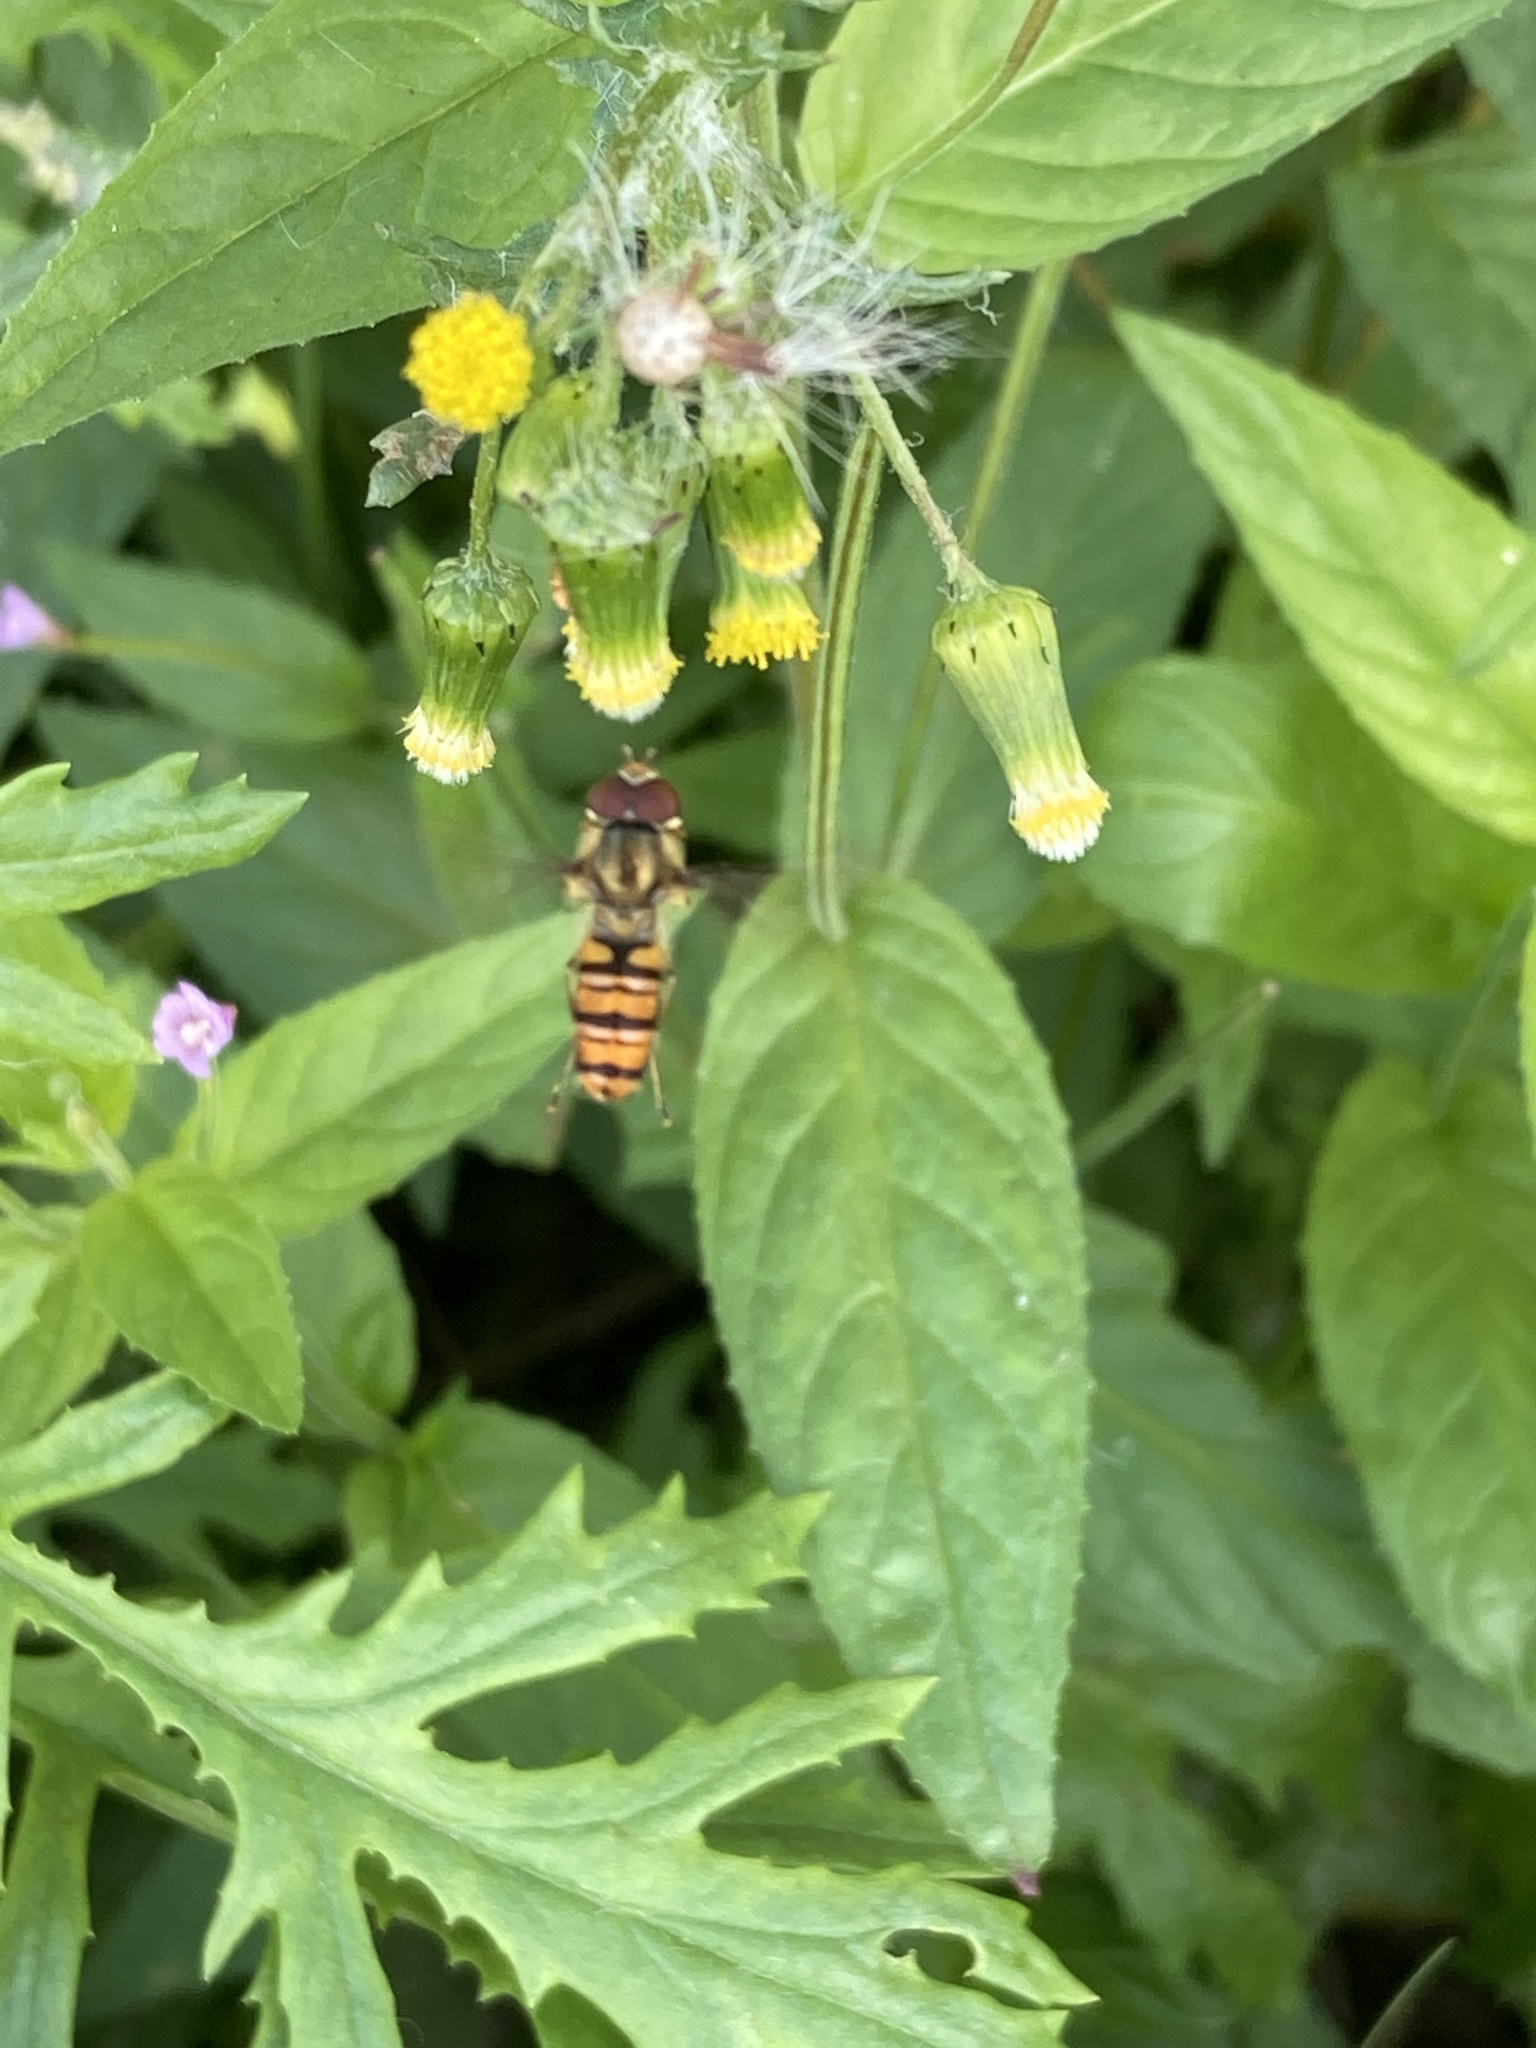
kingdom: Animalia
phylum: Arthropoda
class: Insecta
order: Diptera
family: Syrphidae
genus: Episyrphus
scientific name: Episyrphus balteatus
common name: Marmalade hoverfly
